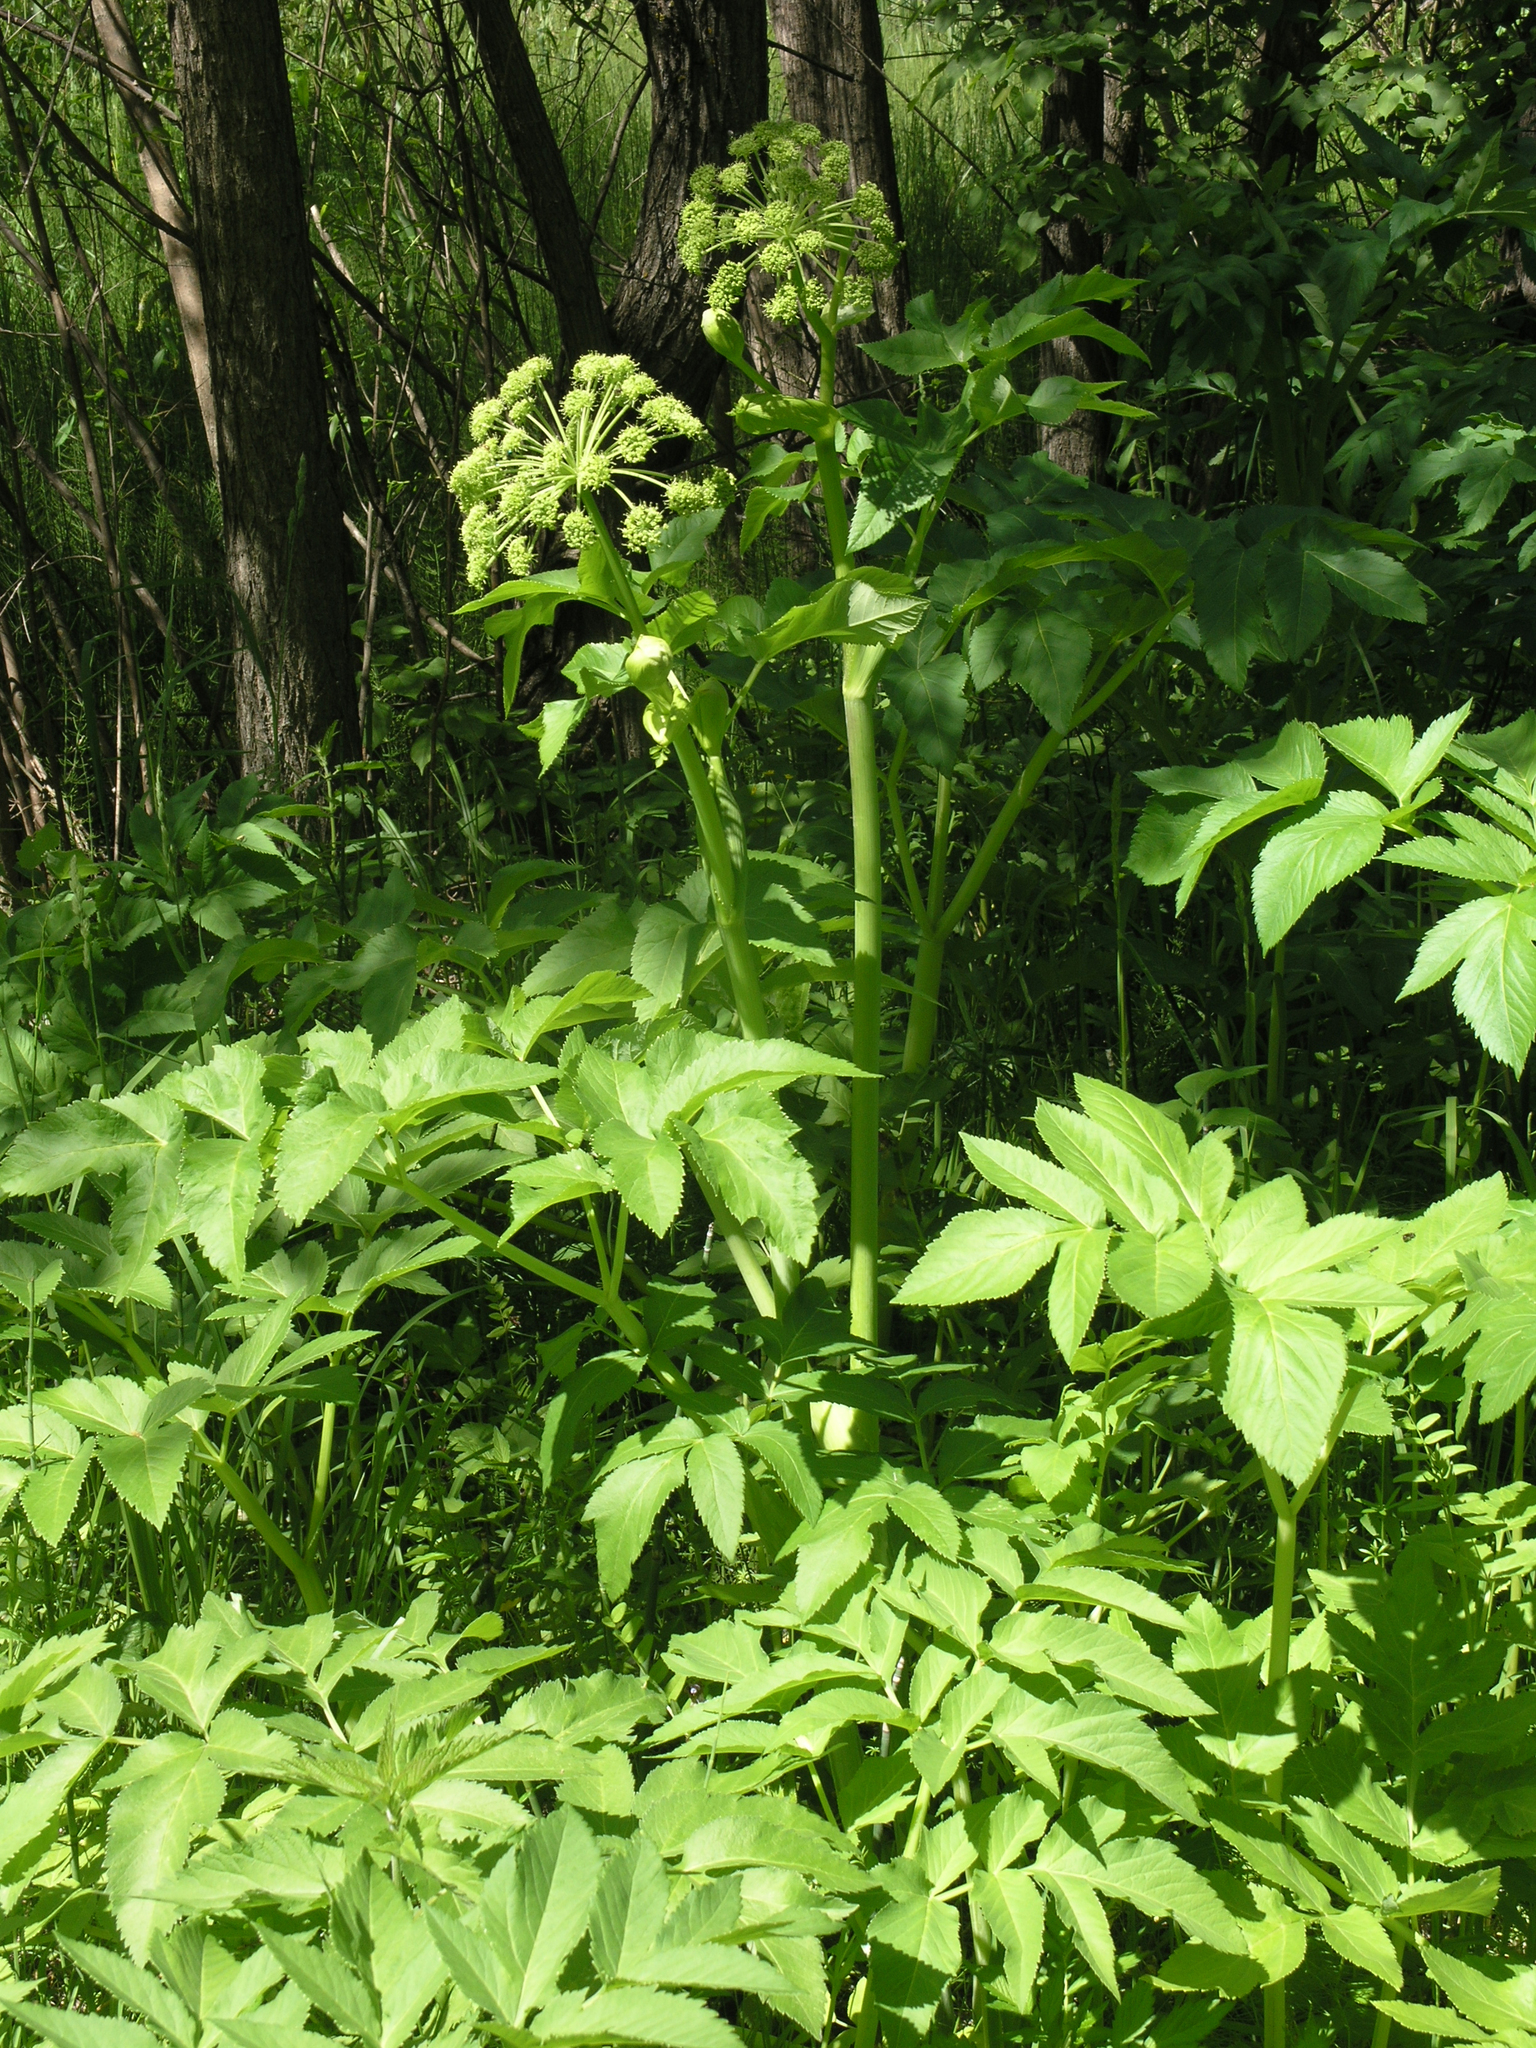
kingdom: Plantae
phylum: Tracheophyta
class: Magnoliopsida
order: Apiales
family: Apiaceae
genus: Angelica
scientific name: Angelica decurrens
